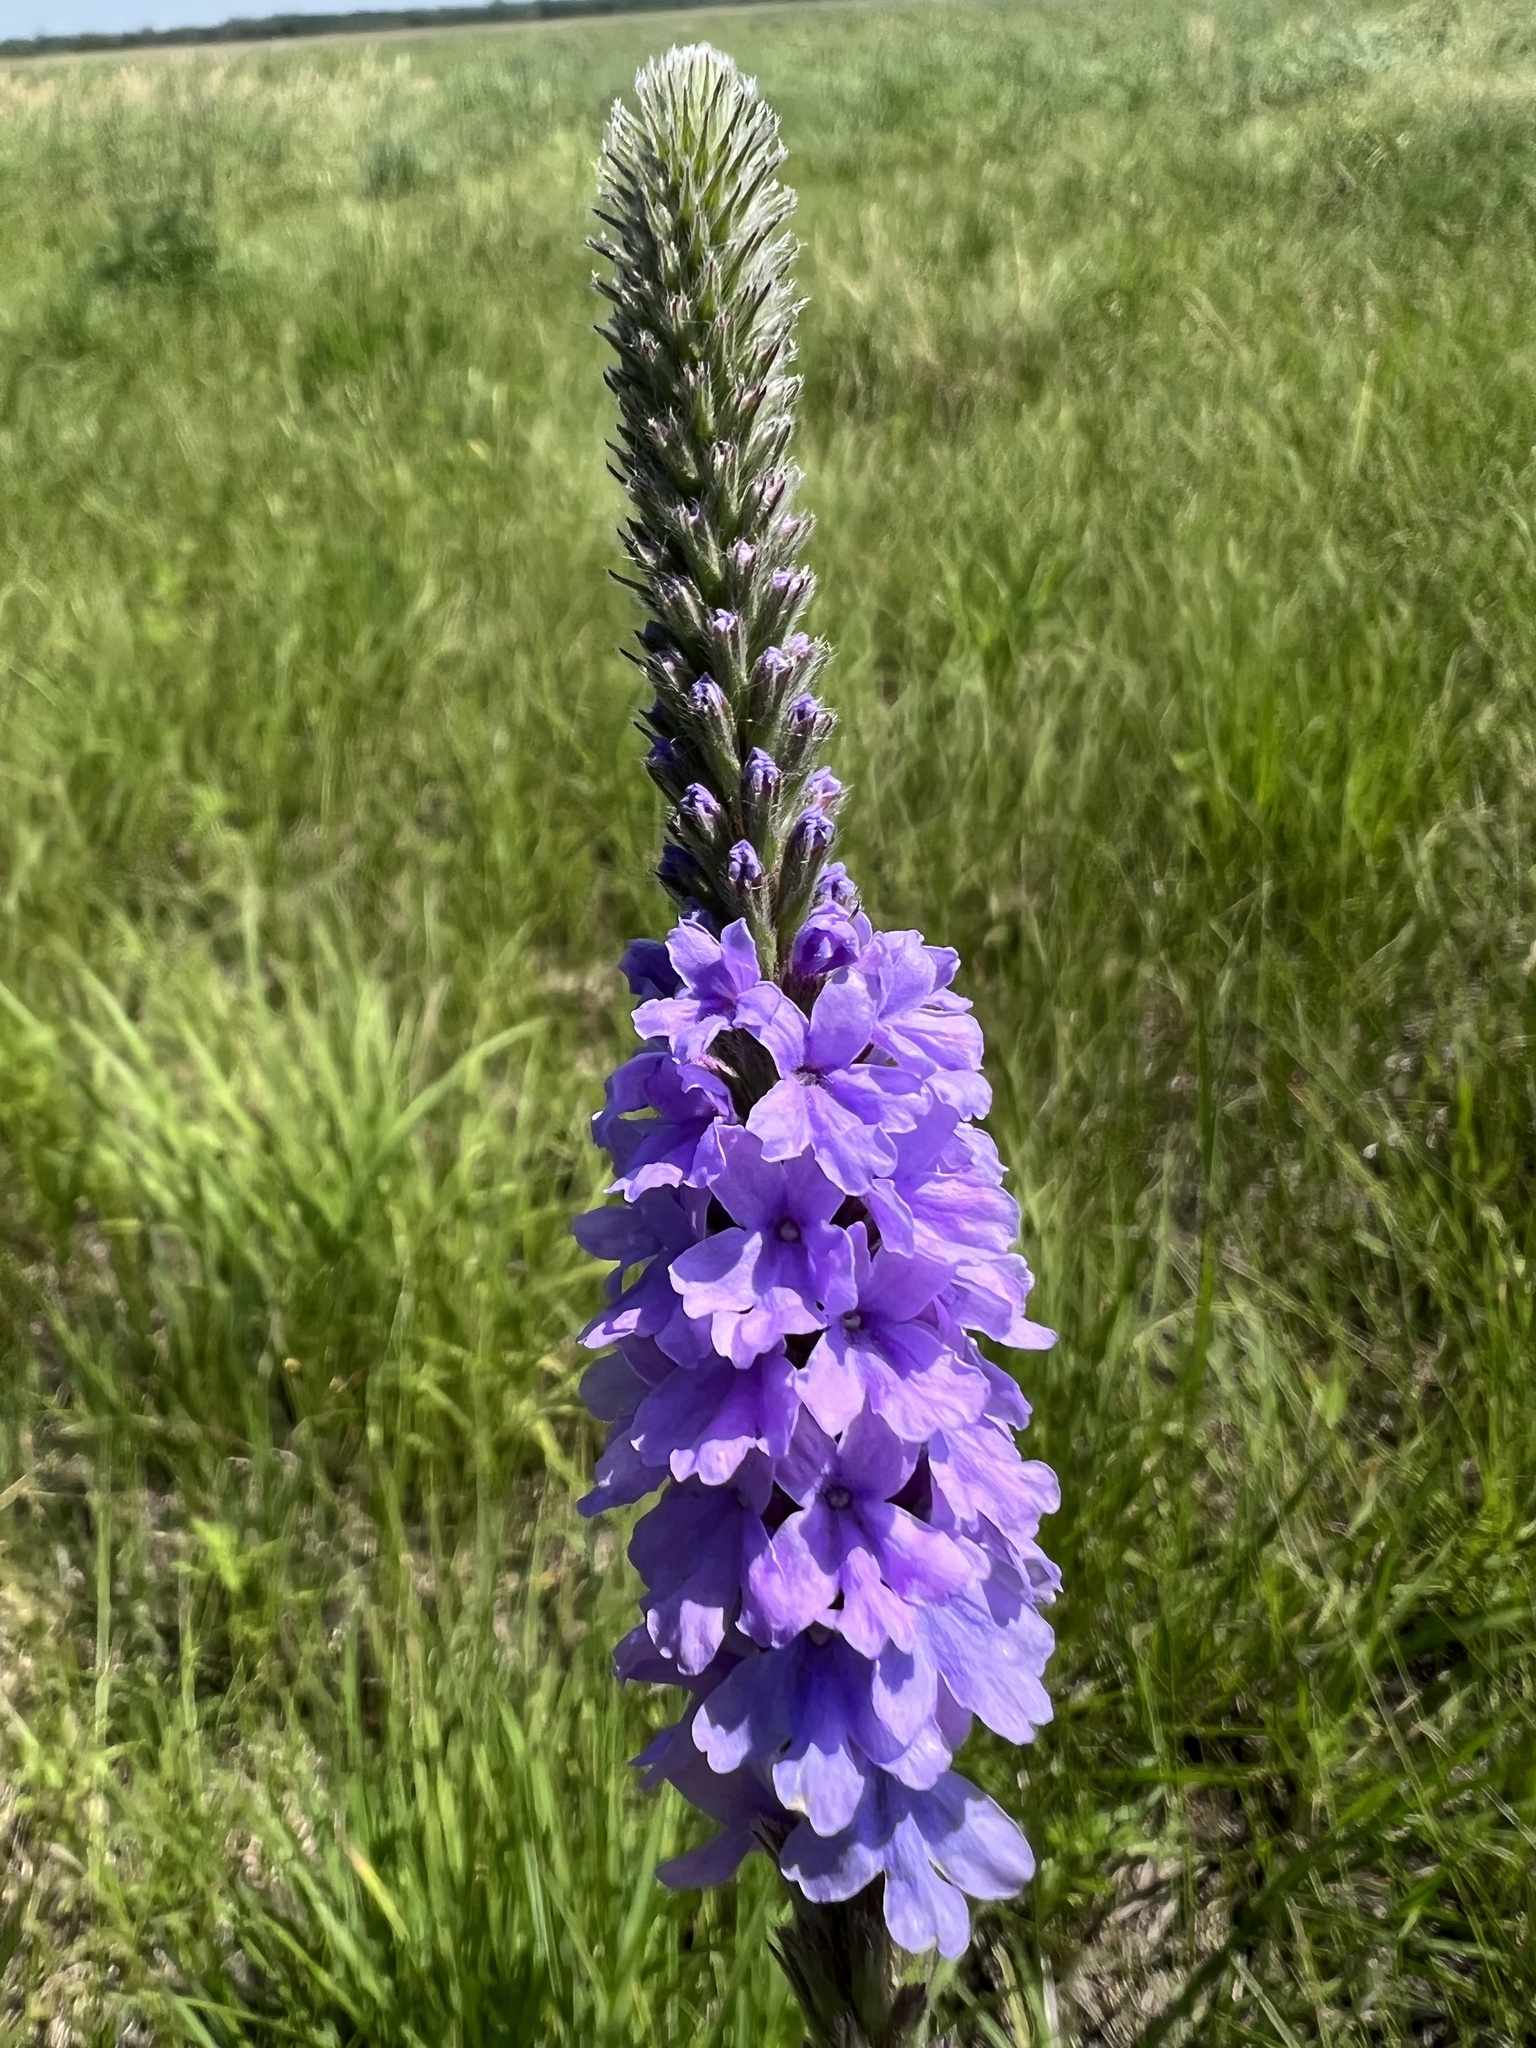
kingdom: Plantae
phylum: Tracheophyta
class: Magnoliopsida
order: Lamiales
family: Verbenaceae
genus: Verbena
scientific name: Verbena stricta
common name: Hoary vervain
